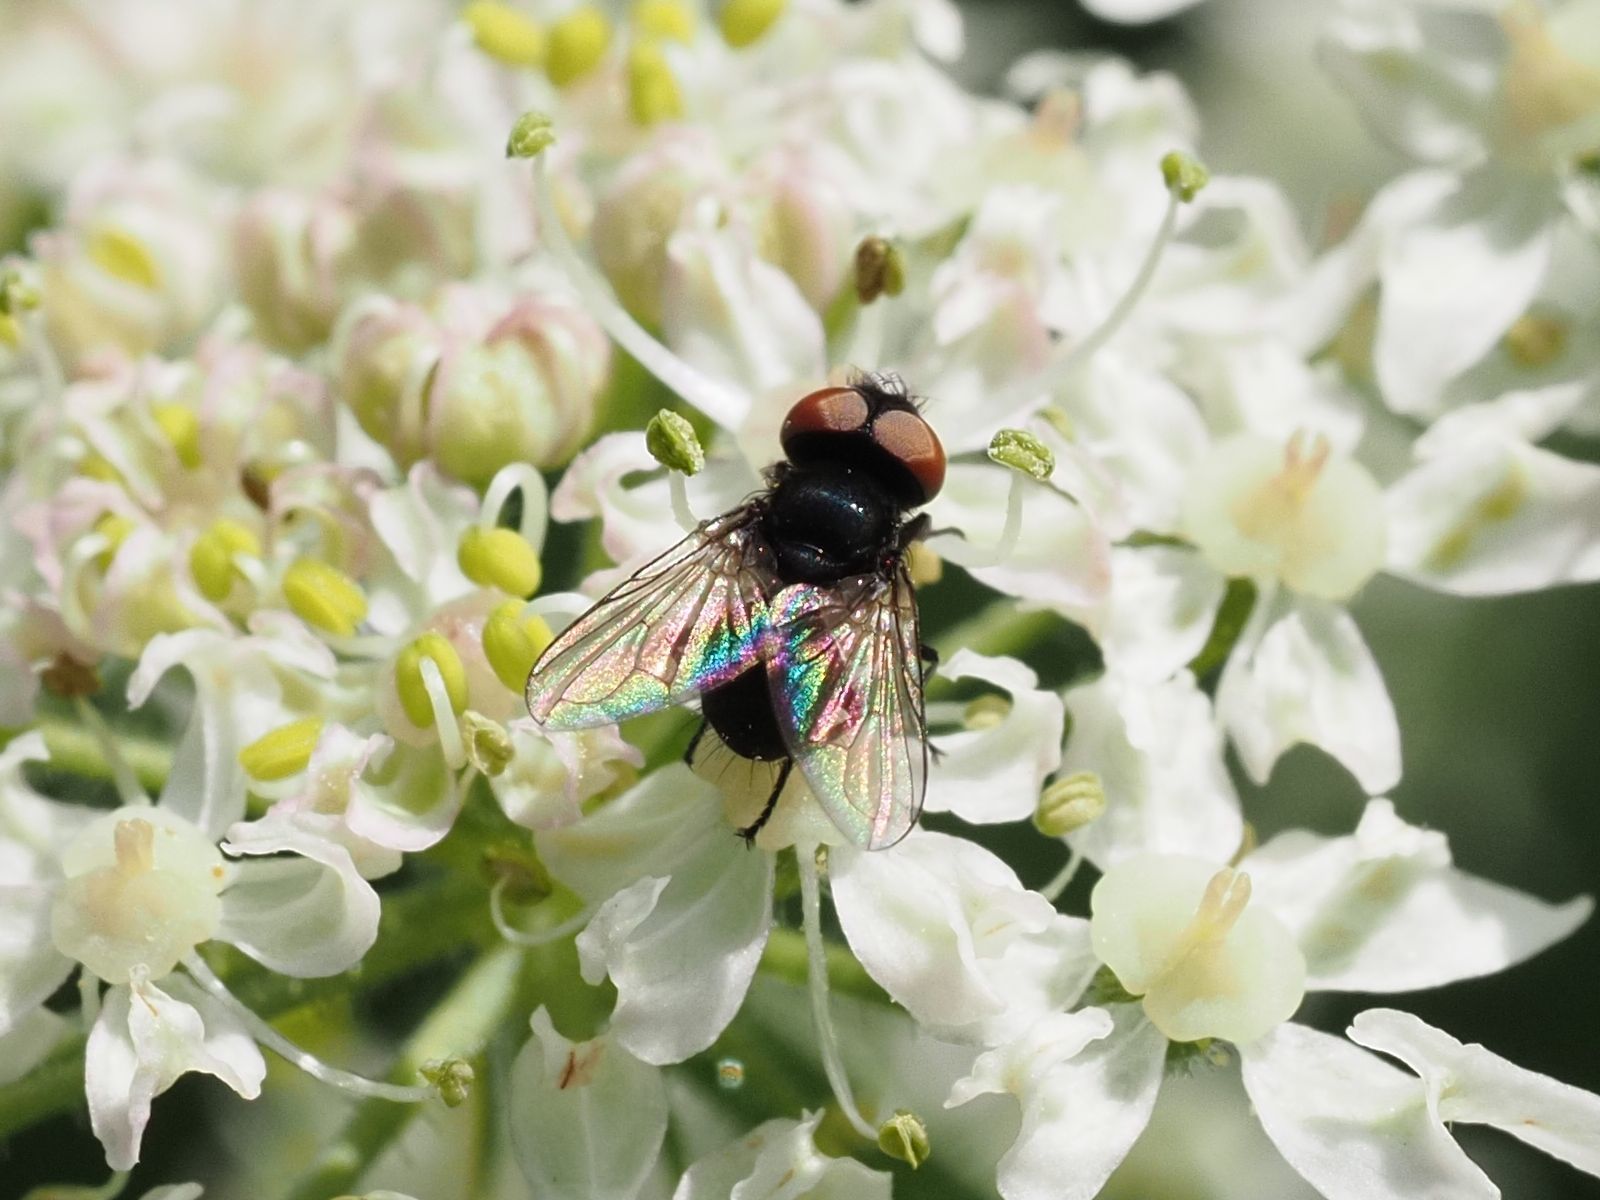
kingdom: Animalia
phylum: Arthropoda
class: Insecta
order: Diptera
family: Tachinidae
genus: Phasia
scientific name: Phasia barbifrons
